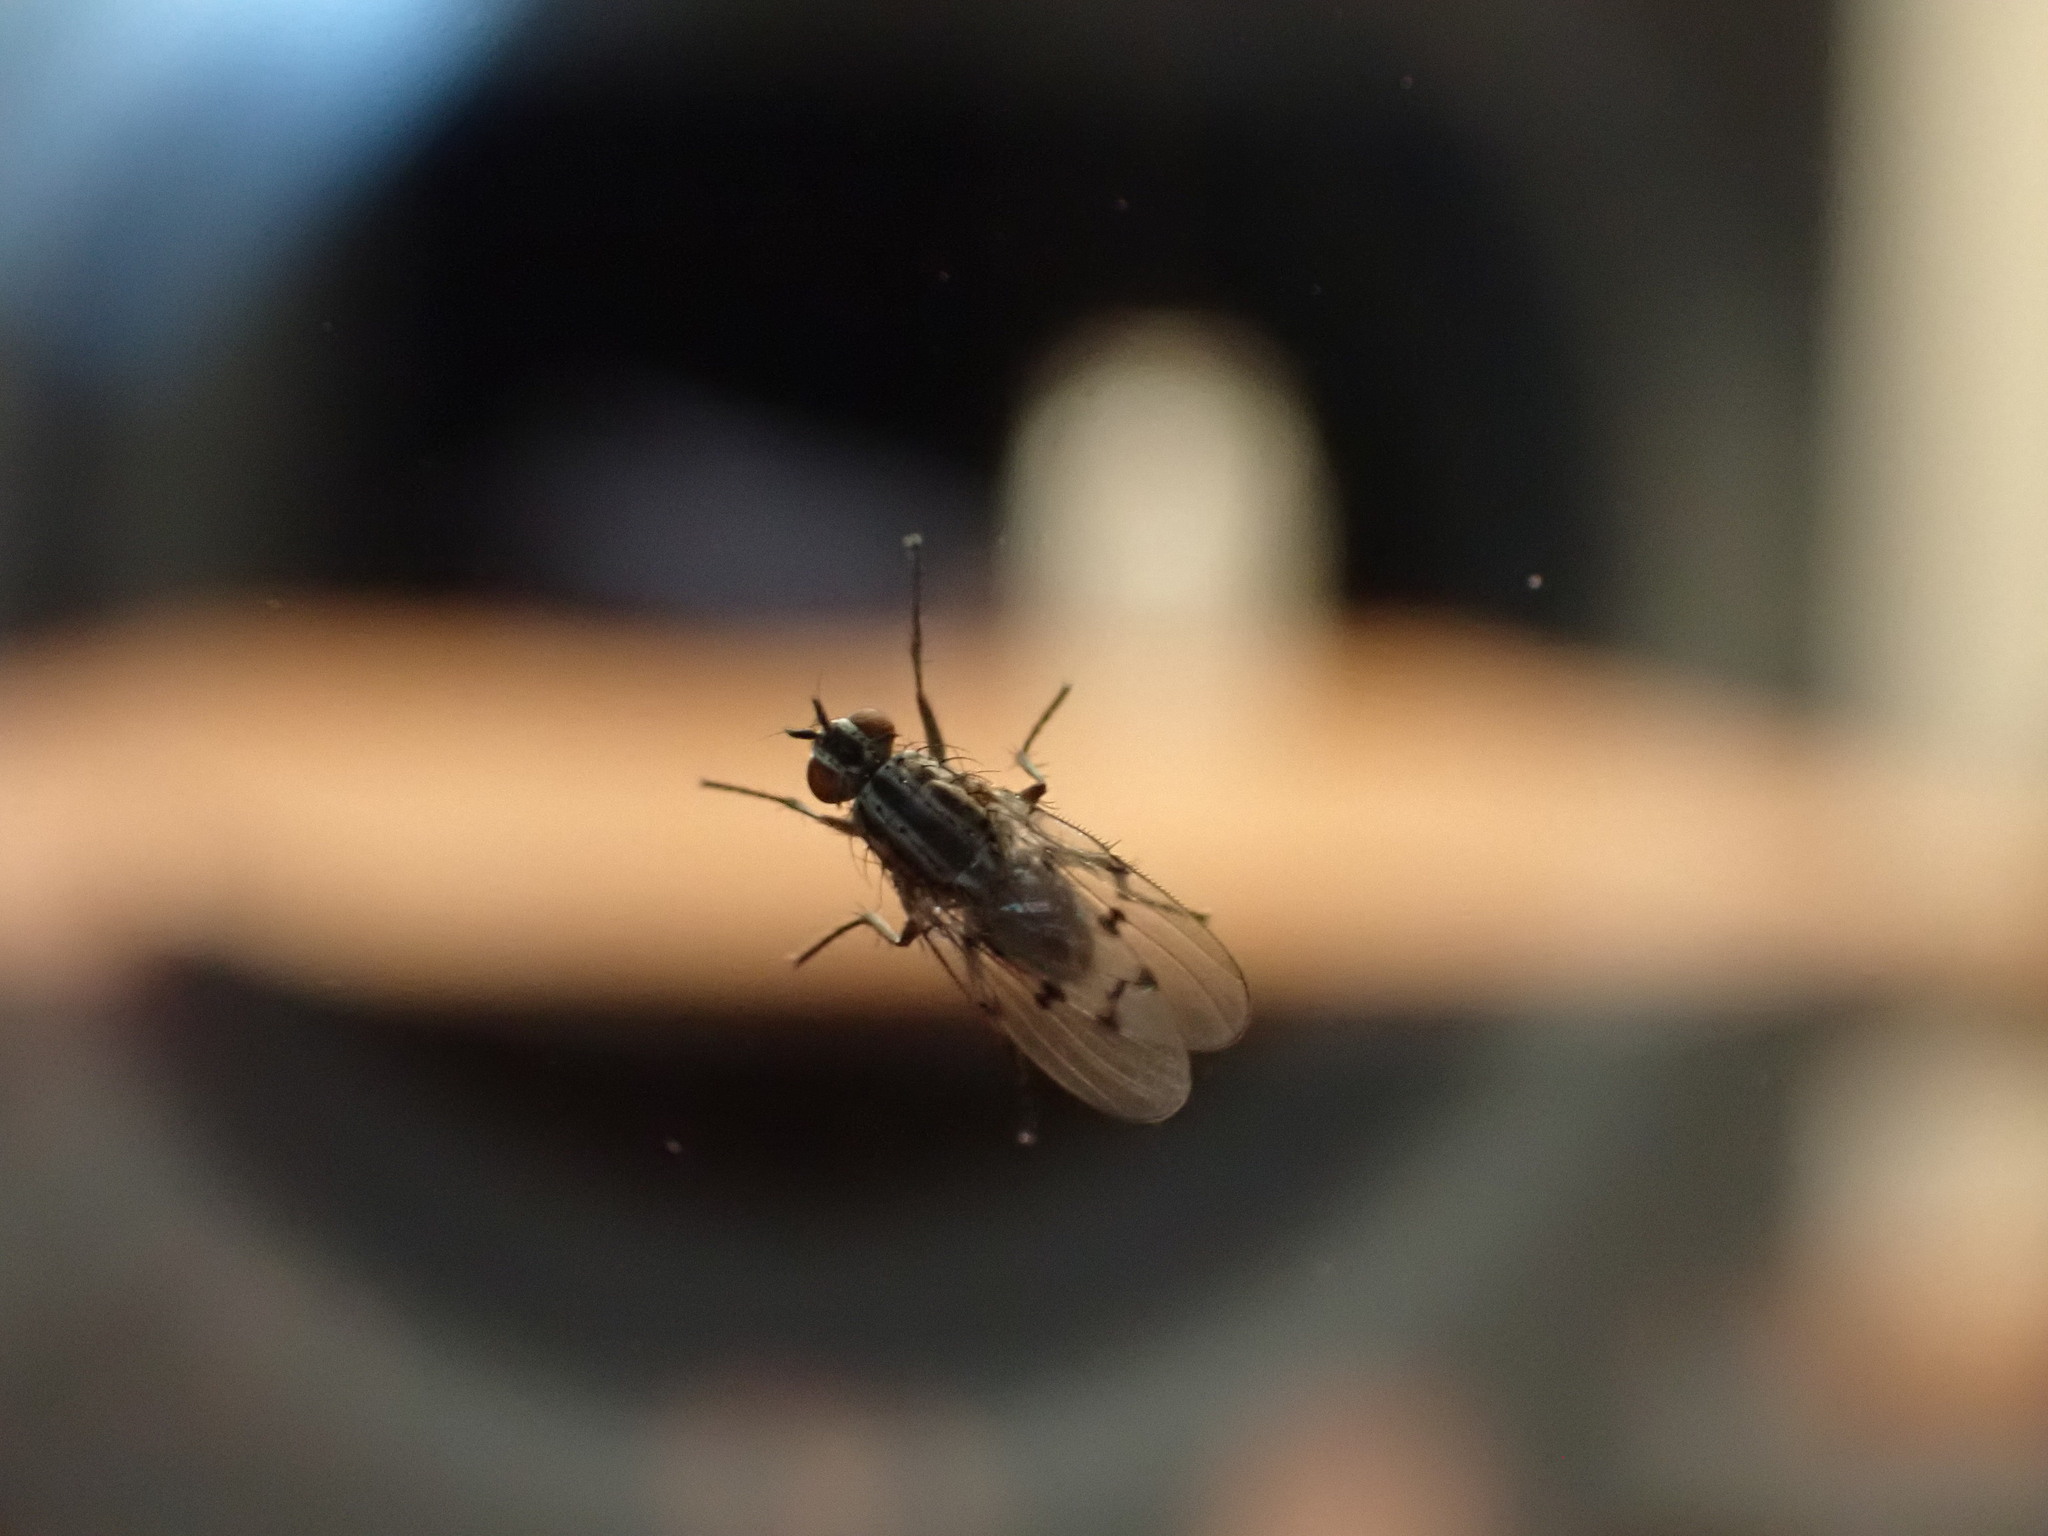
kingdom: Animalia
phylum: Arthropoda
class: Insecta
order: Diptera
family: Anthomyiidae
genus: Anthomyia
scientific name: Anthomyia punctipennis
